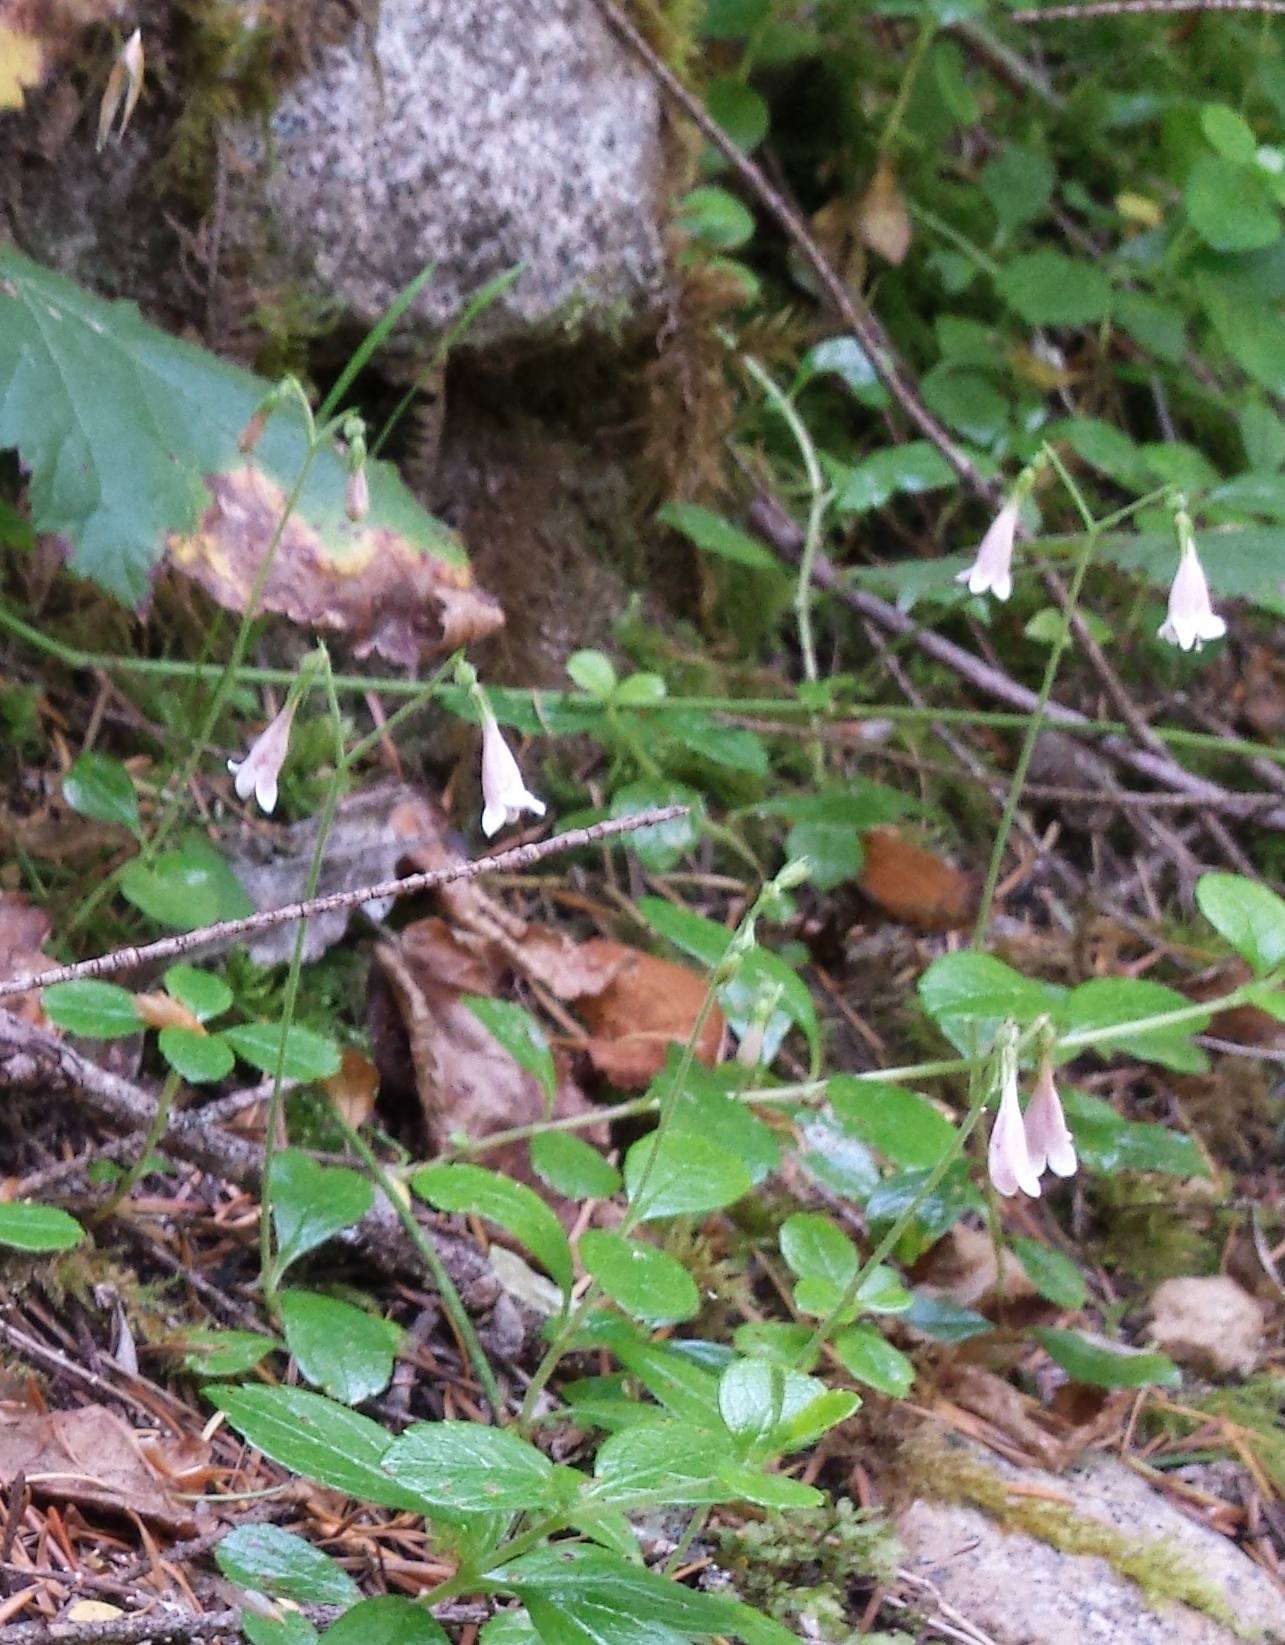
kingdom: Plantae
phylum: Tracheophyta
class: Magnoliopsida
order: Dipsacales
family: Caprifoliaceae
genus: Linnaea
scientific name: Linnaea borealis
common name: Twinflower
